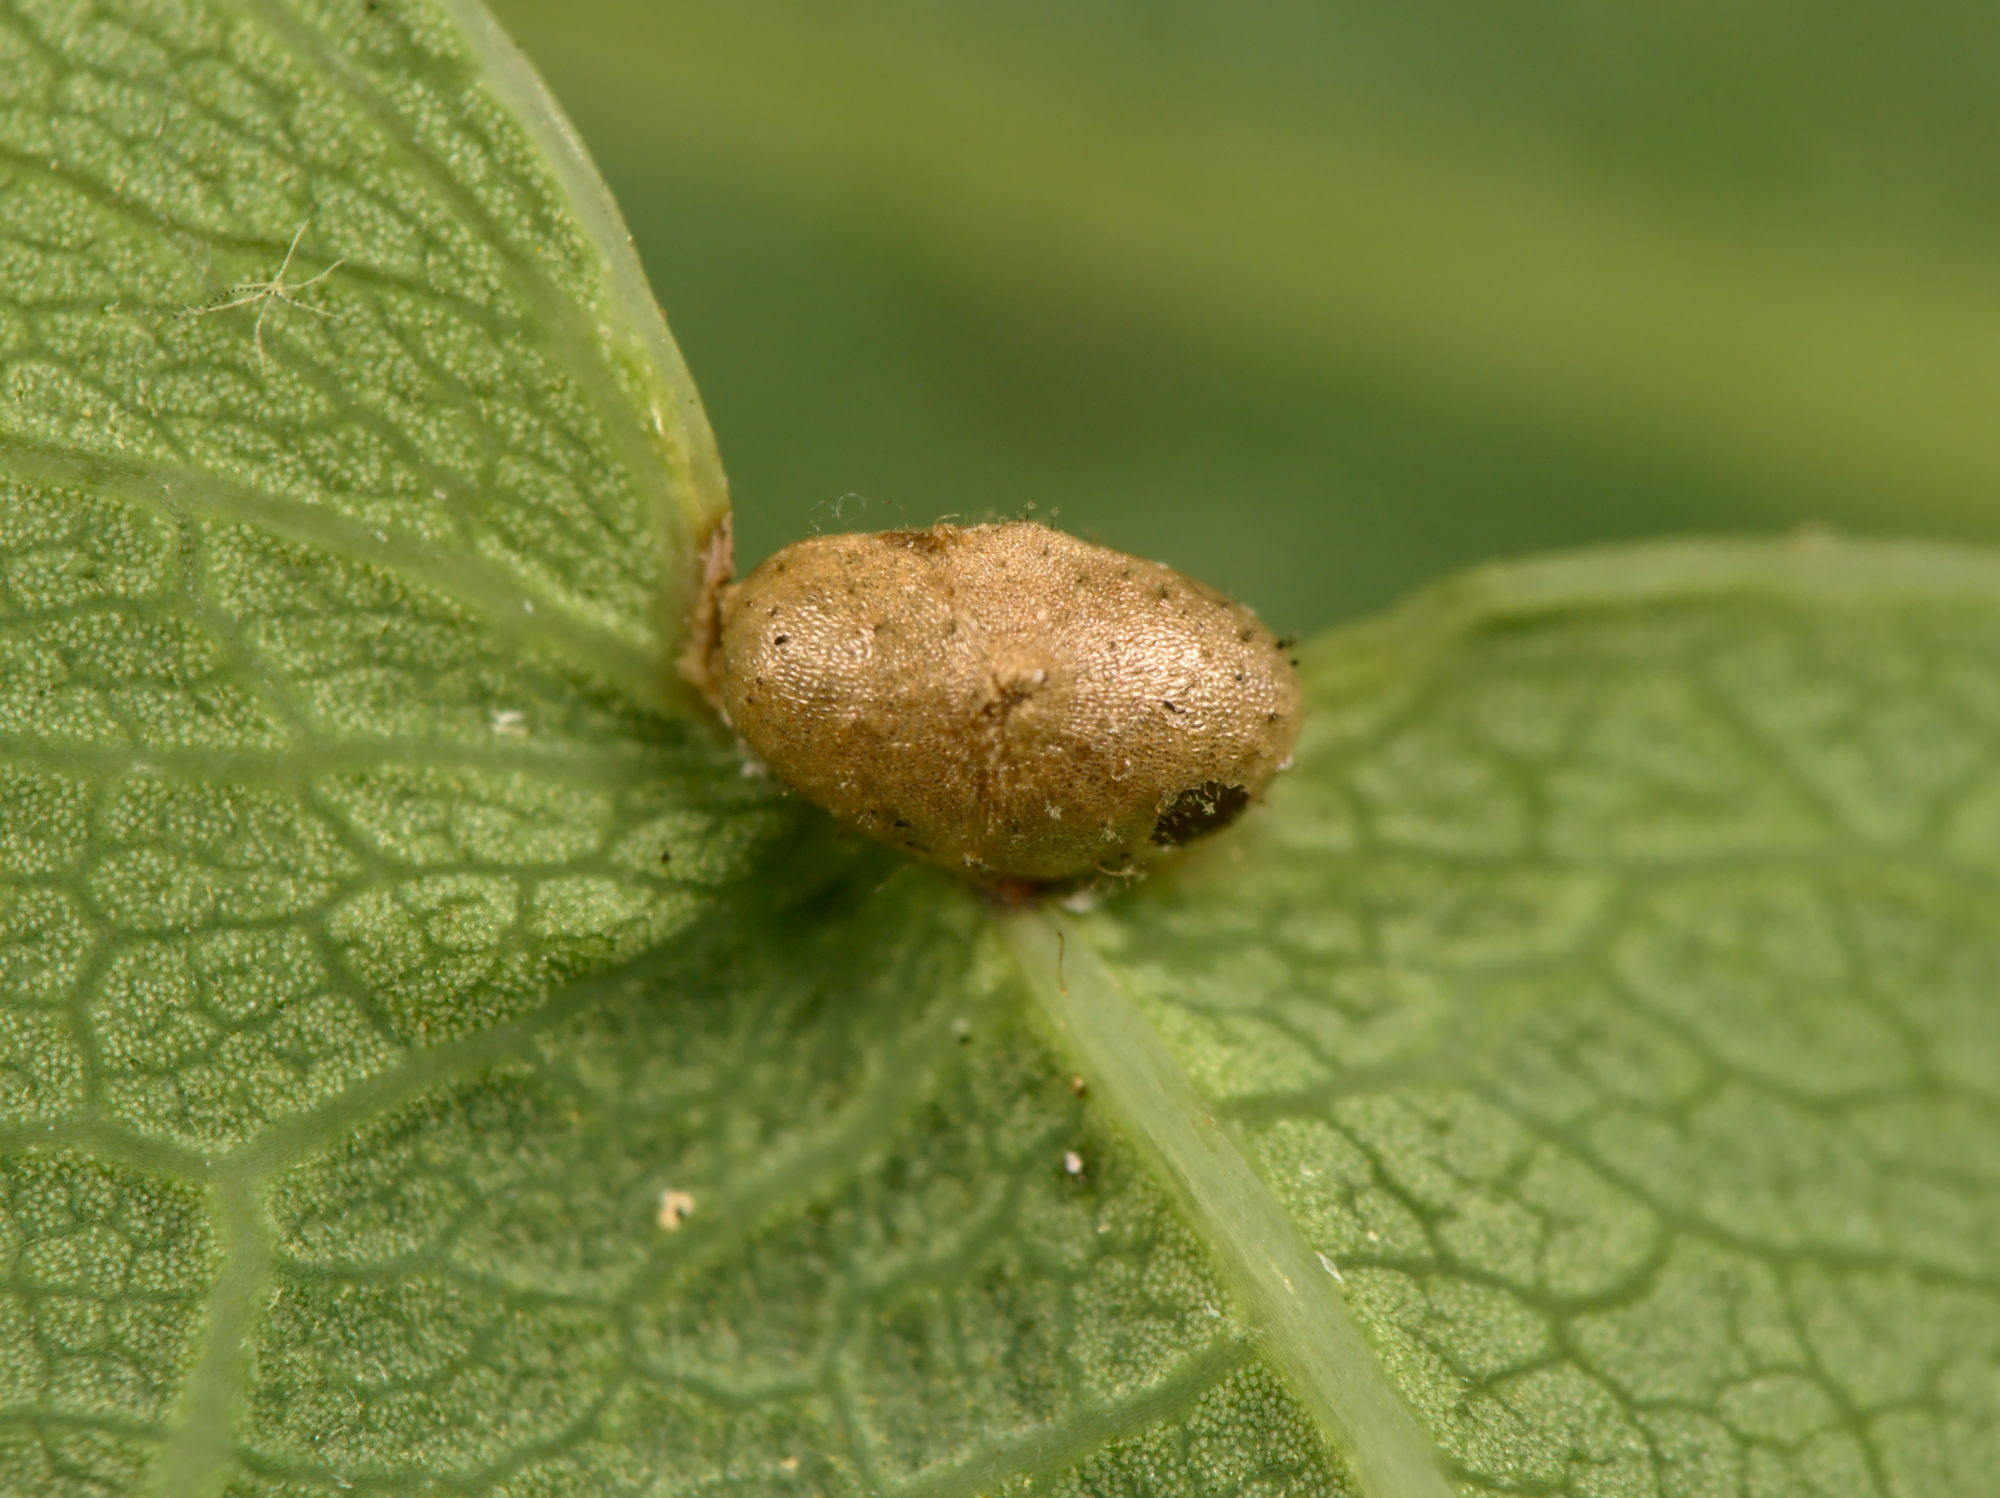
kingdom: Animalia
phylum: Arthropoda
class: Insecta
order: Hymenoptera
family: Cynipidae
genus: Neuroterus
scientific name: Neuroterus albipes
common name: Smooth spangle gall
